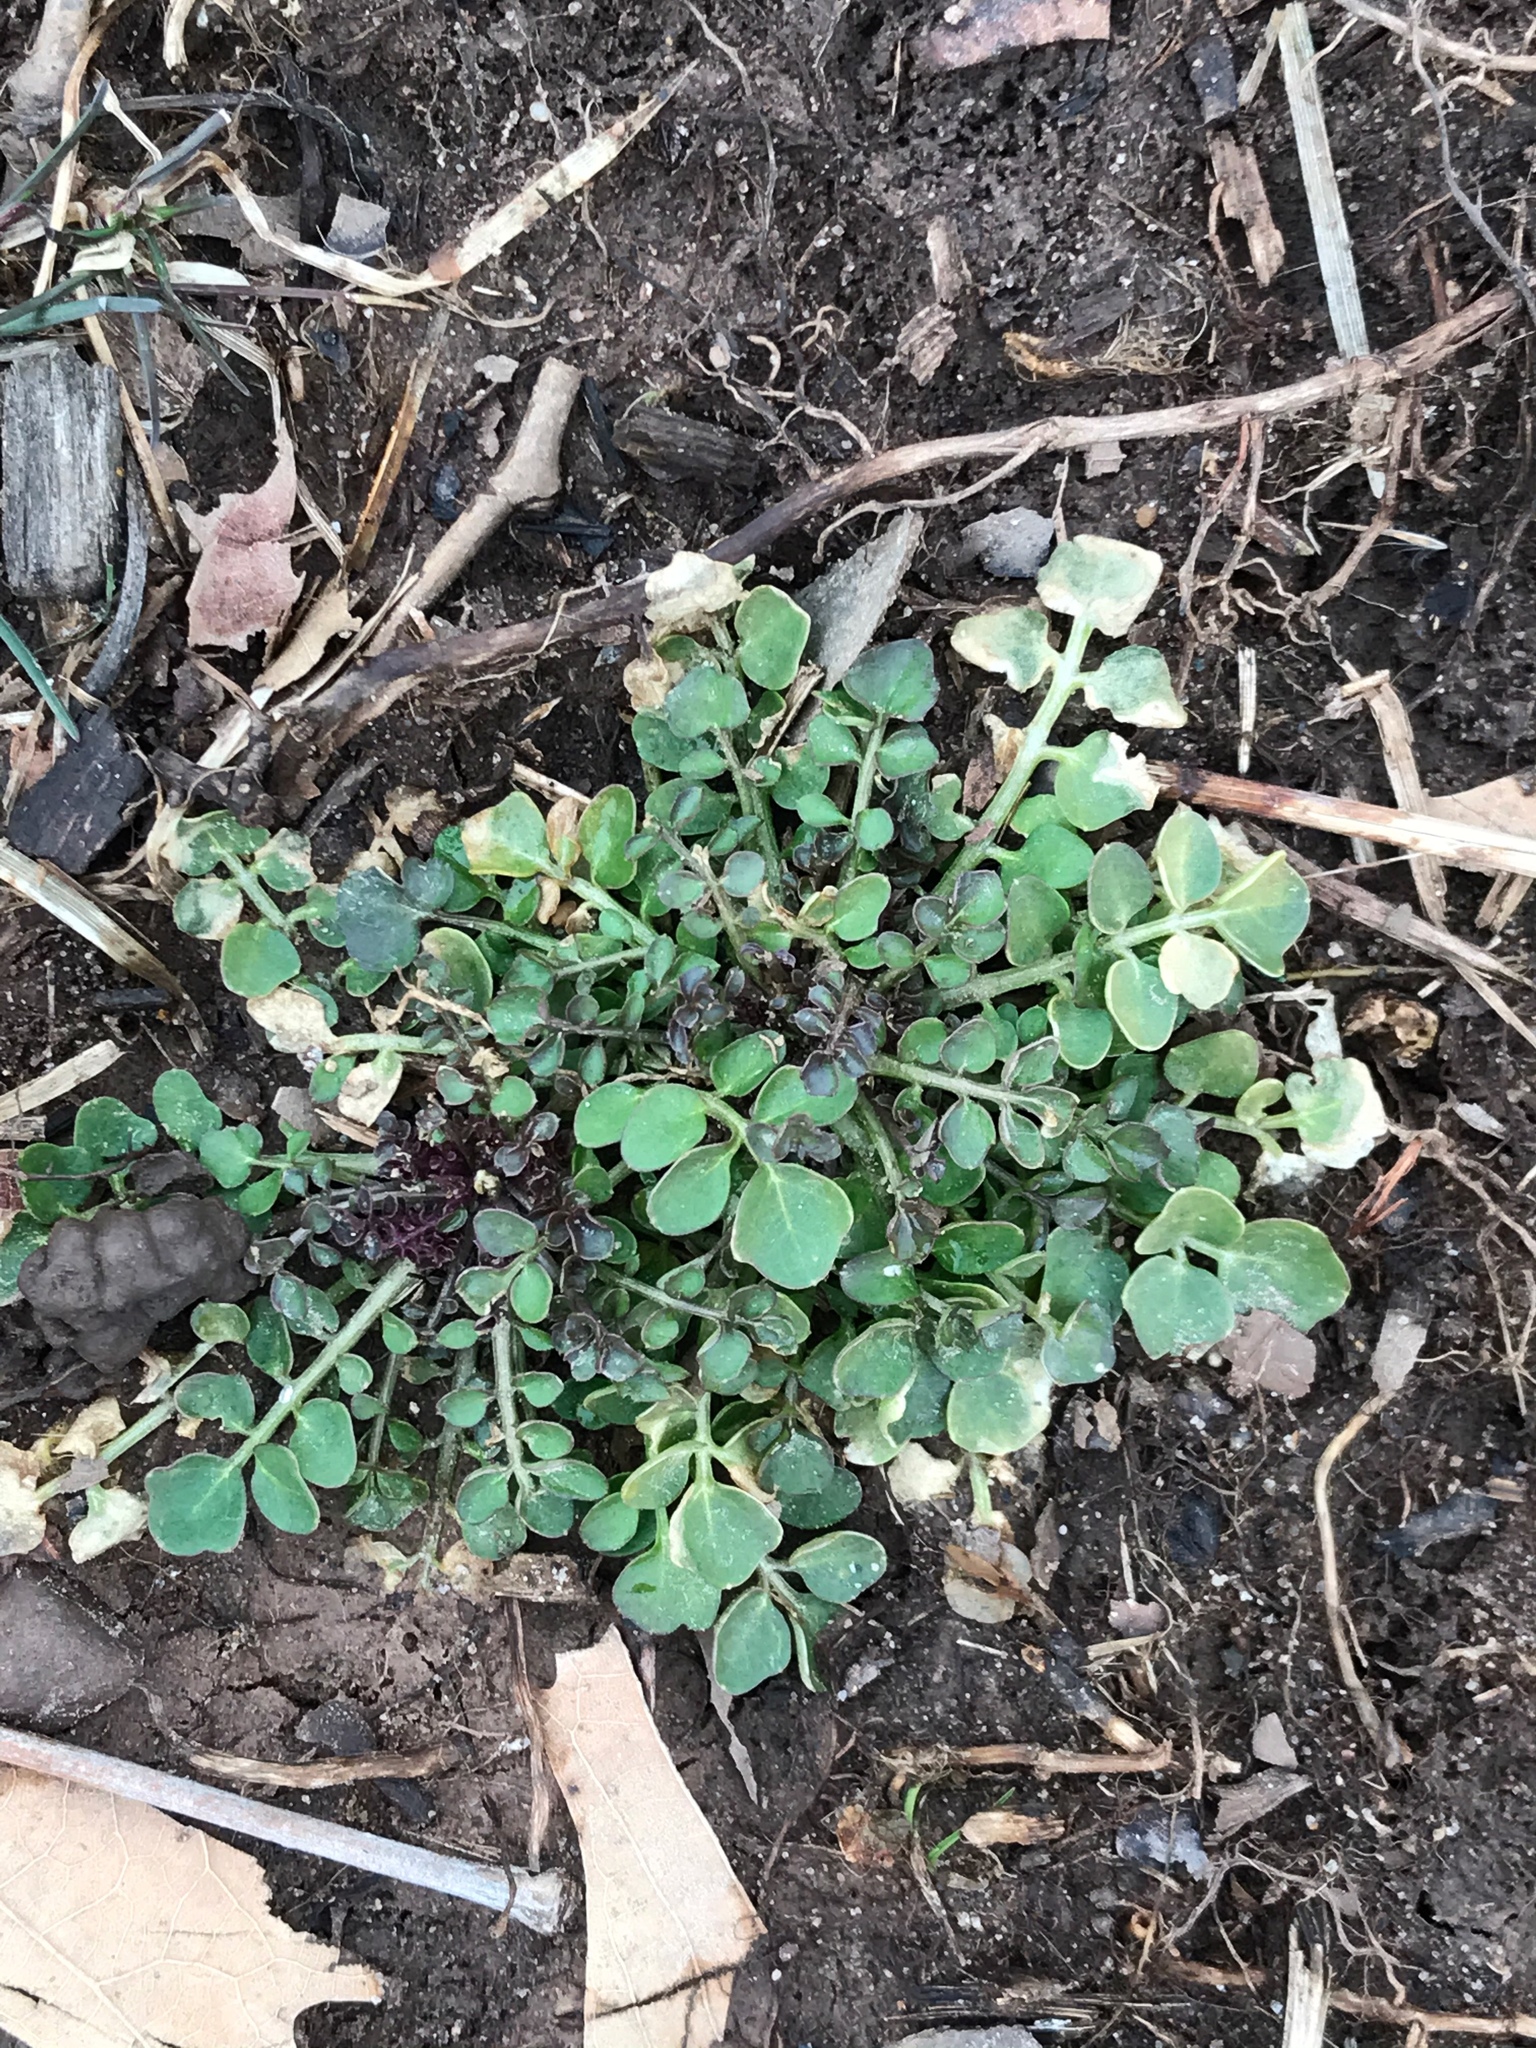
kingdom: Plantae
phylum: Tracheophyta
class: Magnoliopsida
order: Brassicales
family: Brassicaceae
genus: Cardamine
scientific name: Cardamine hirsuta
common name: Hairy bittercress
